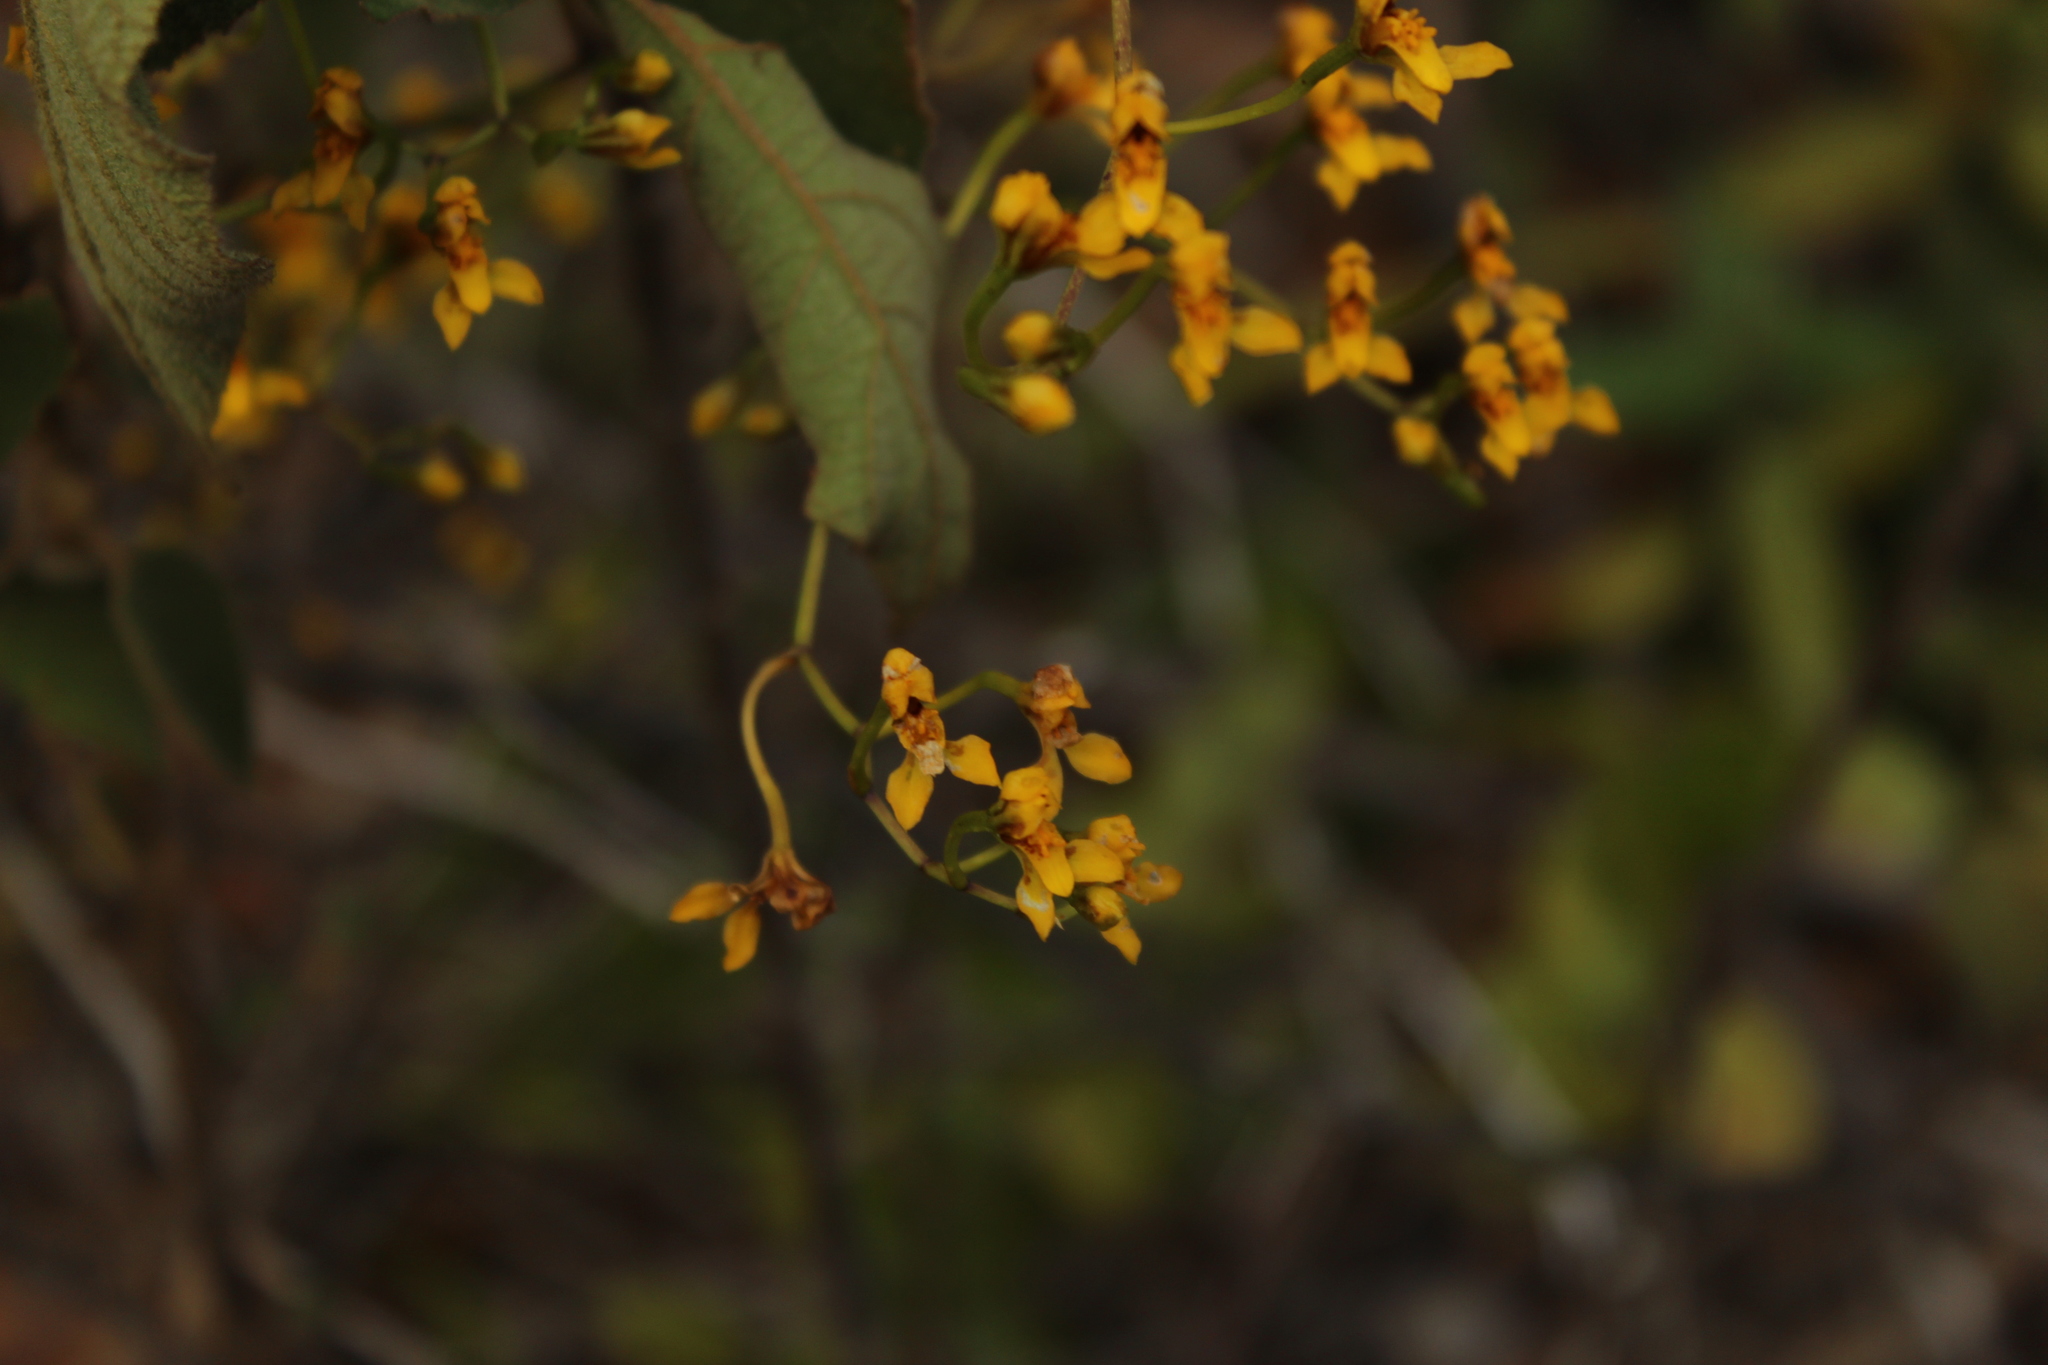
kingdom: Plantae
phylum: Tracheophyta
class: Liliopsida
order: Asparagales
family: Orchidaceae
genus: Cyrtochilum
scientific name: Cyrtochilum densiflorum
